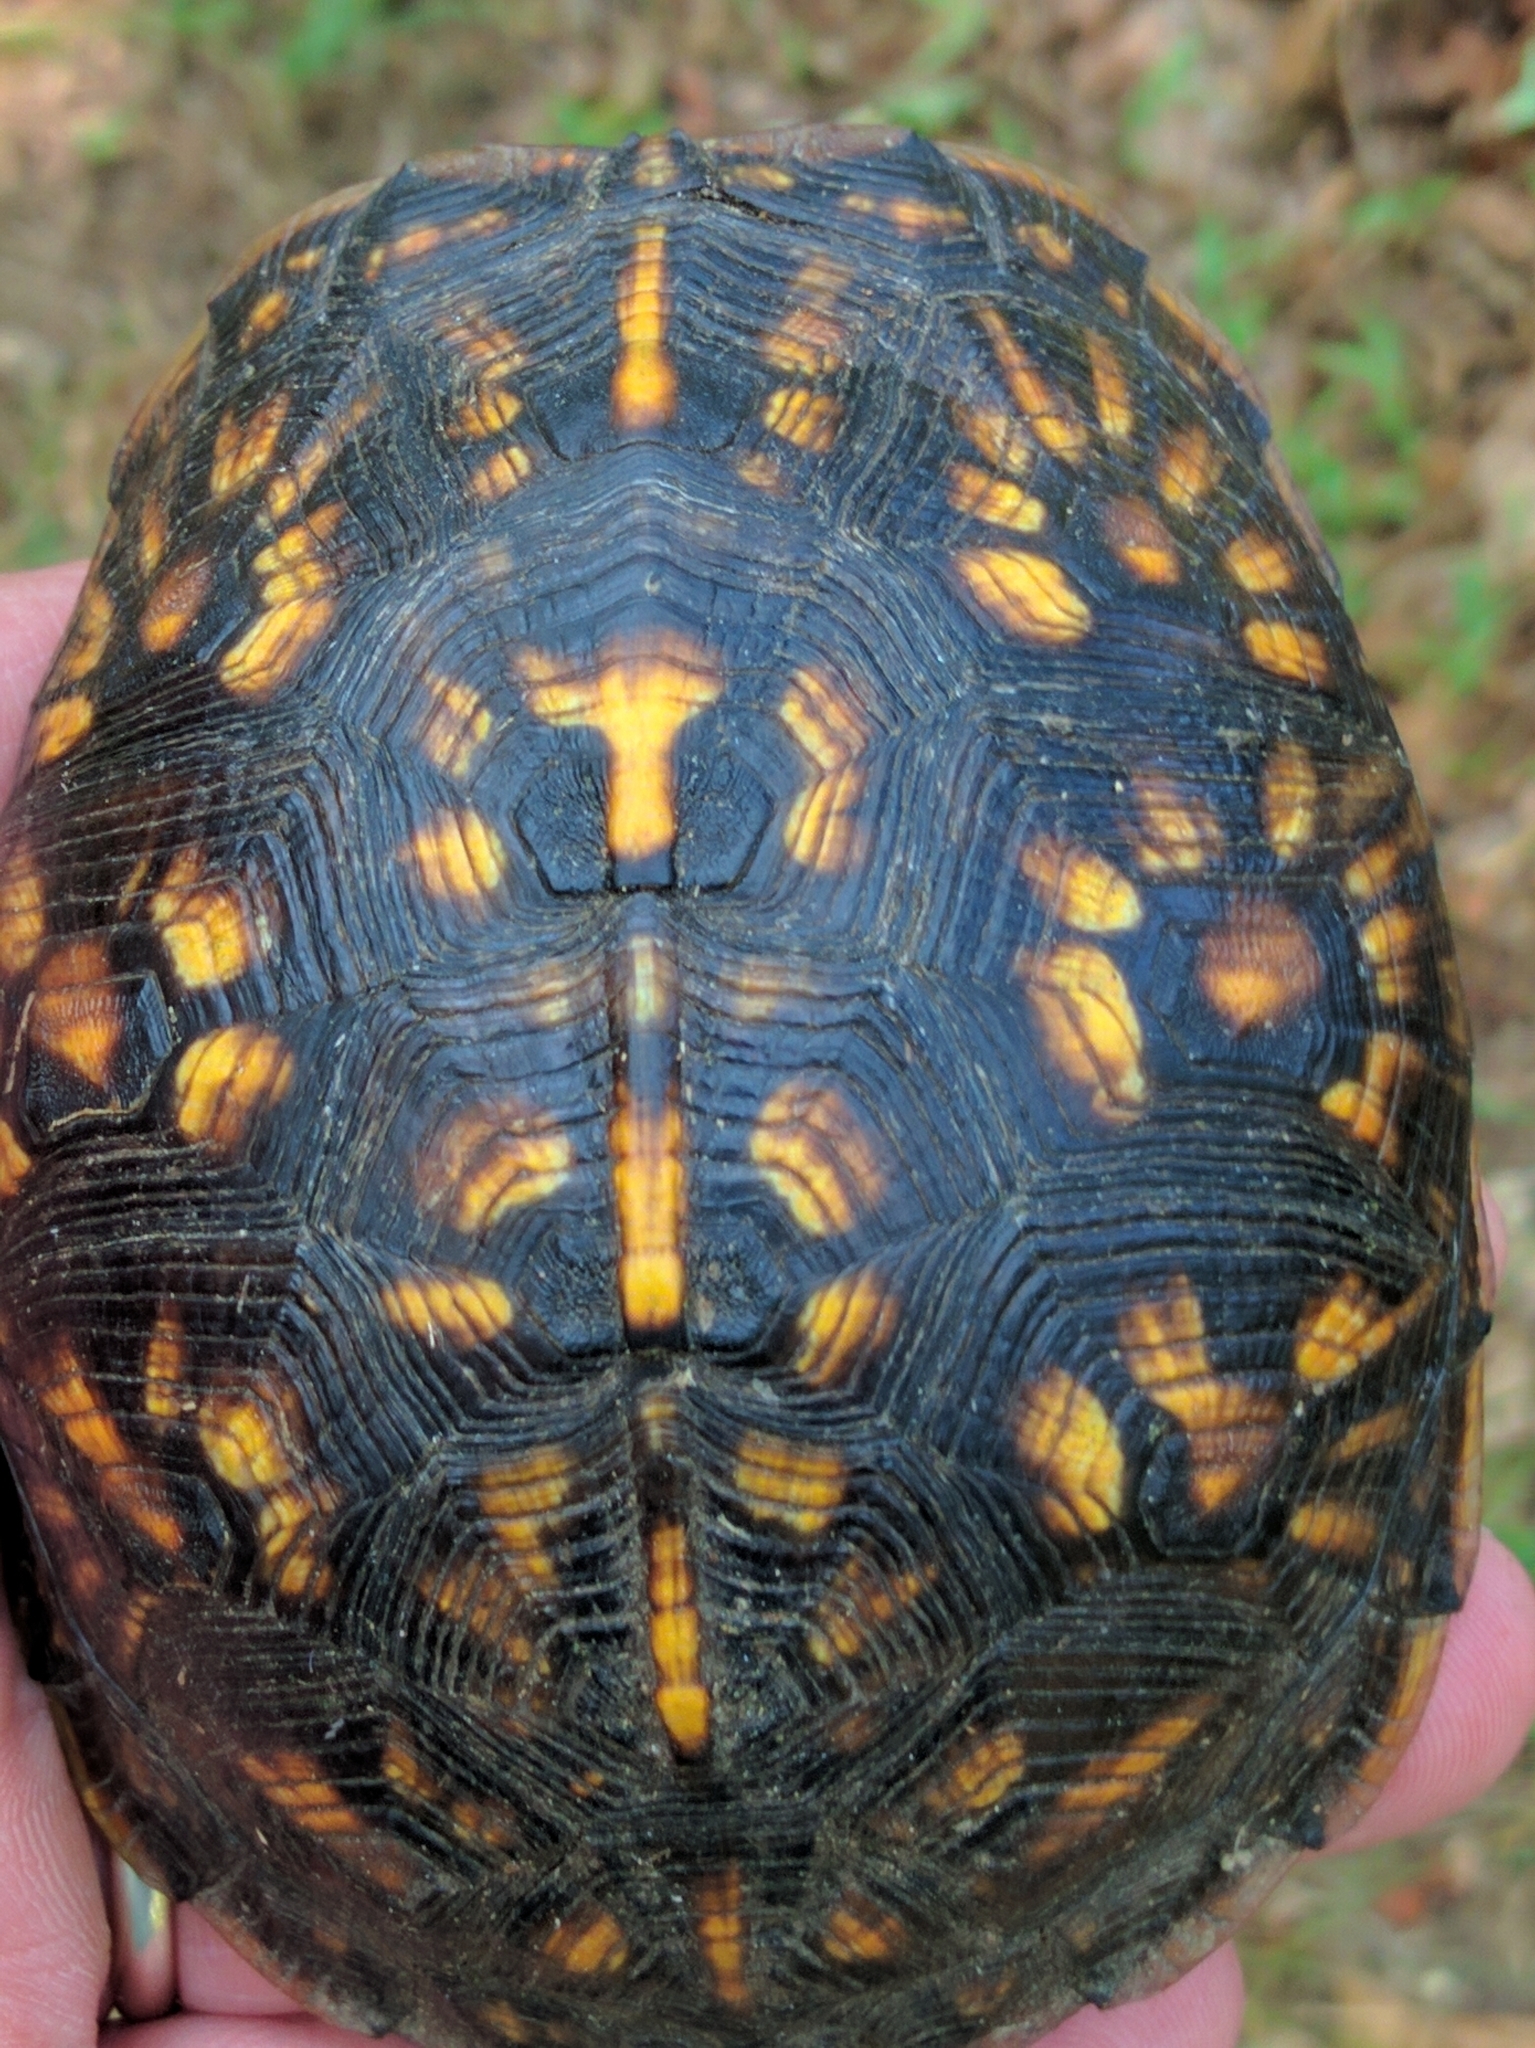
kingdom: Animalia
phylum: Chordata
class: Testudines
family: Emydidae
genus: Terrapene
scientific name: Terrapene carolina
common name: Common box turtle
